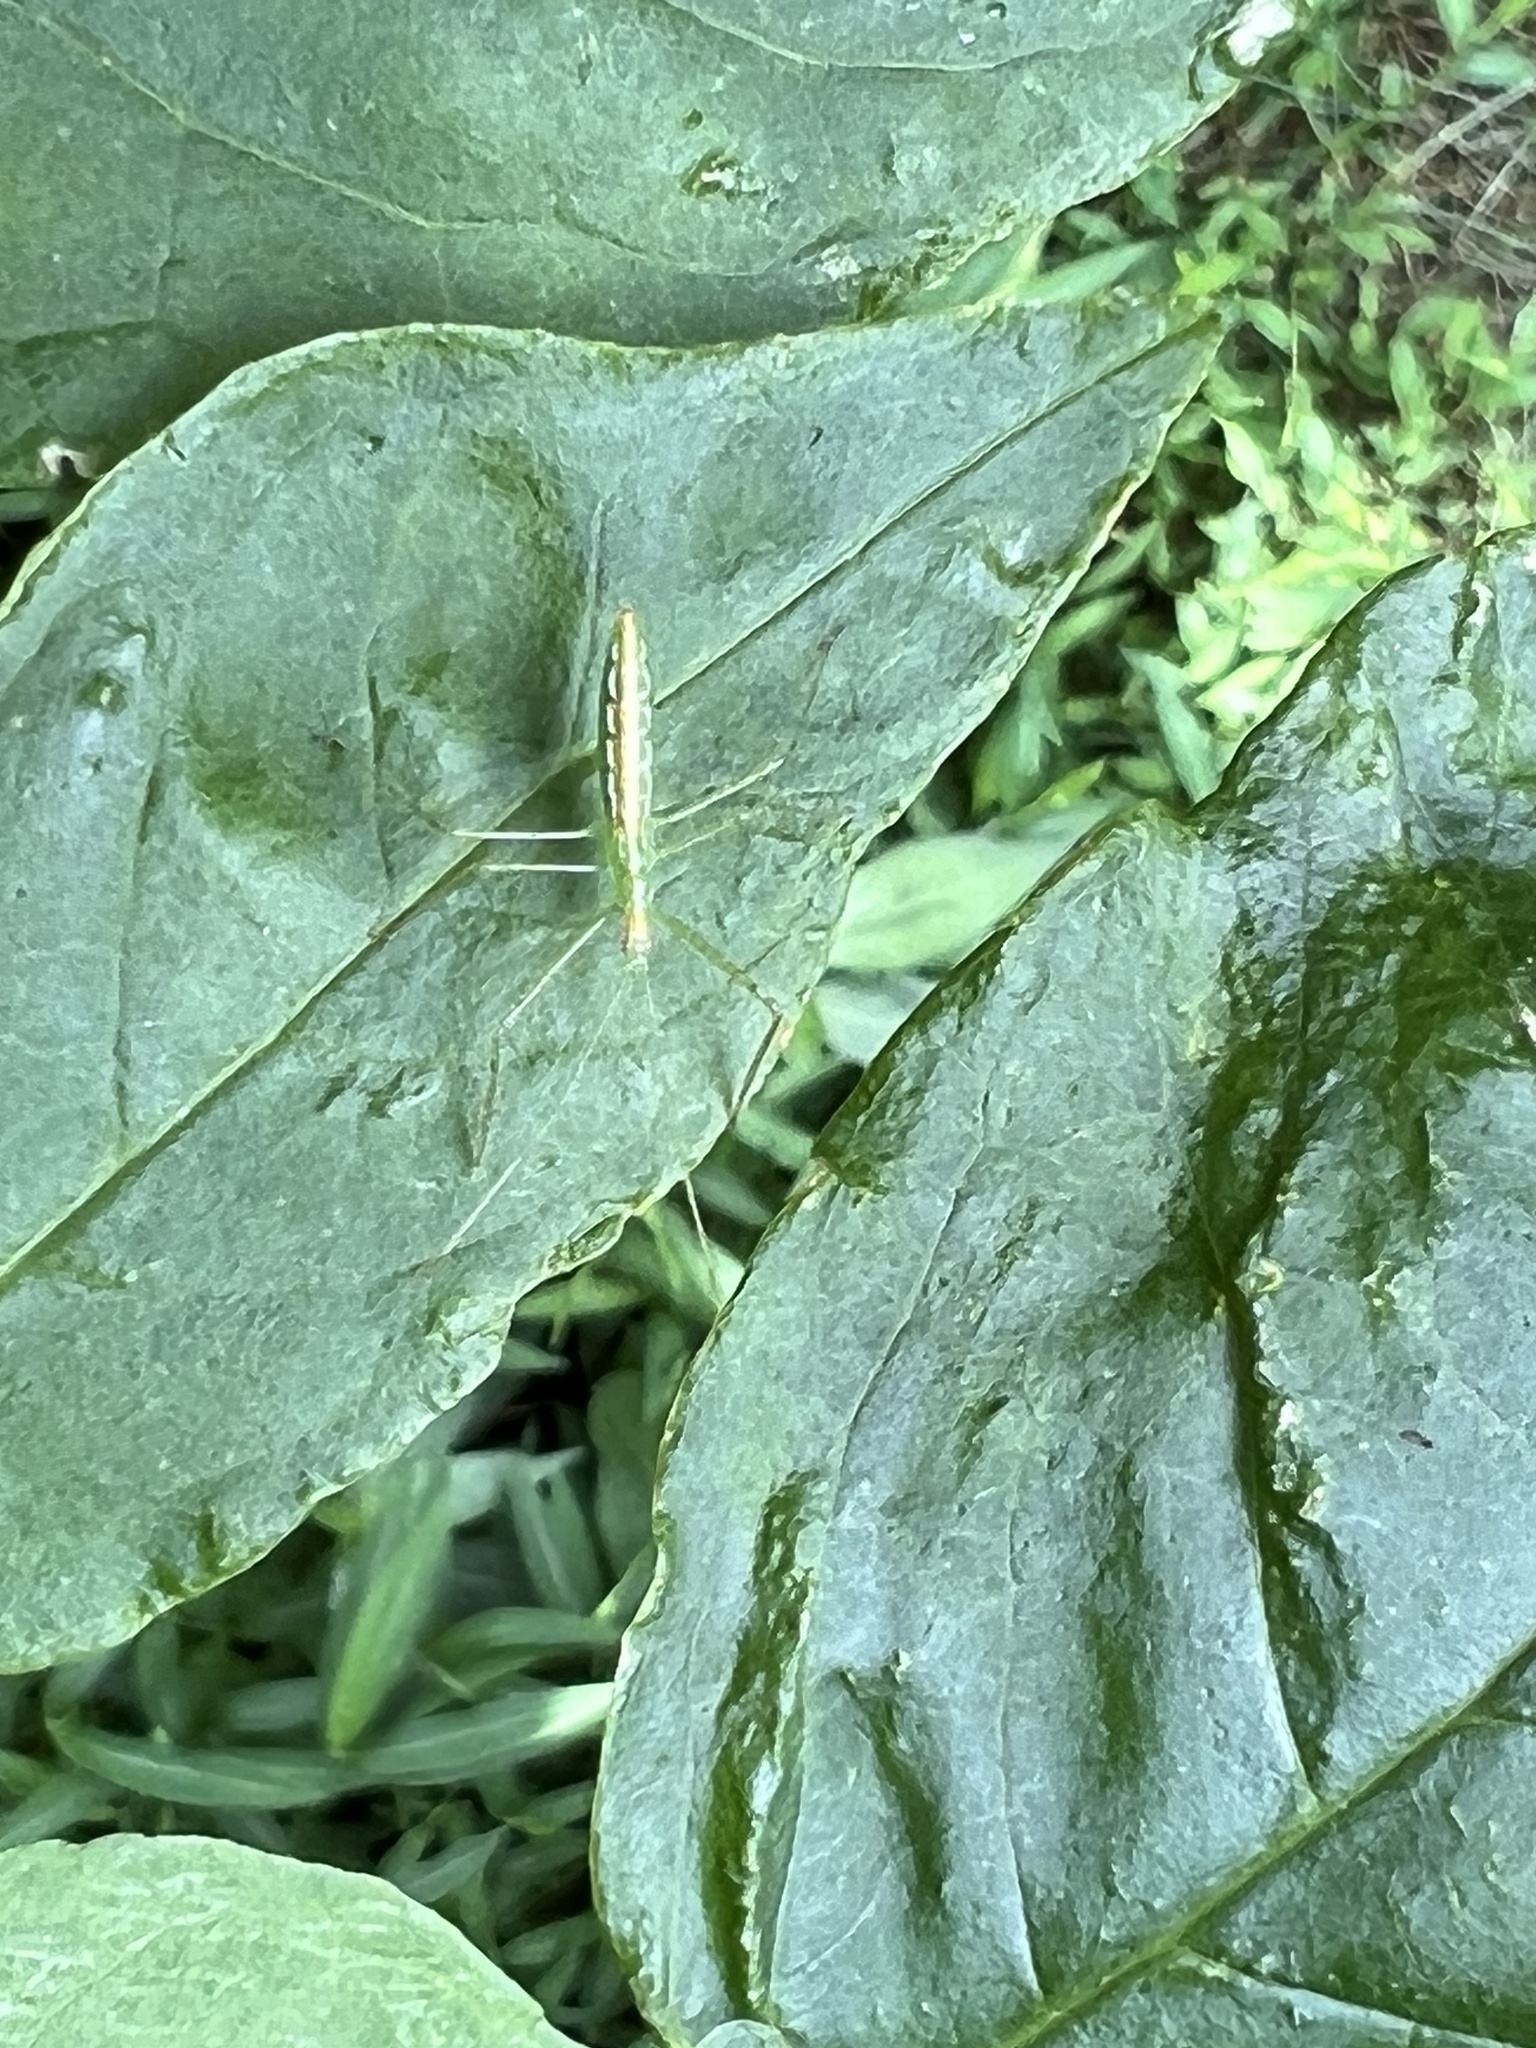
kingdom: Animalia
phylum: Arthropoda
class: Insecta
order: Hemiptera
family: Reduviidae
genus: Zelus
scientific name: Zelus luridus
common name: Pale green assassin bug
